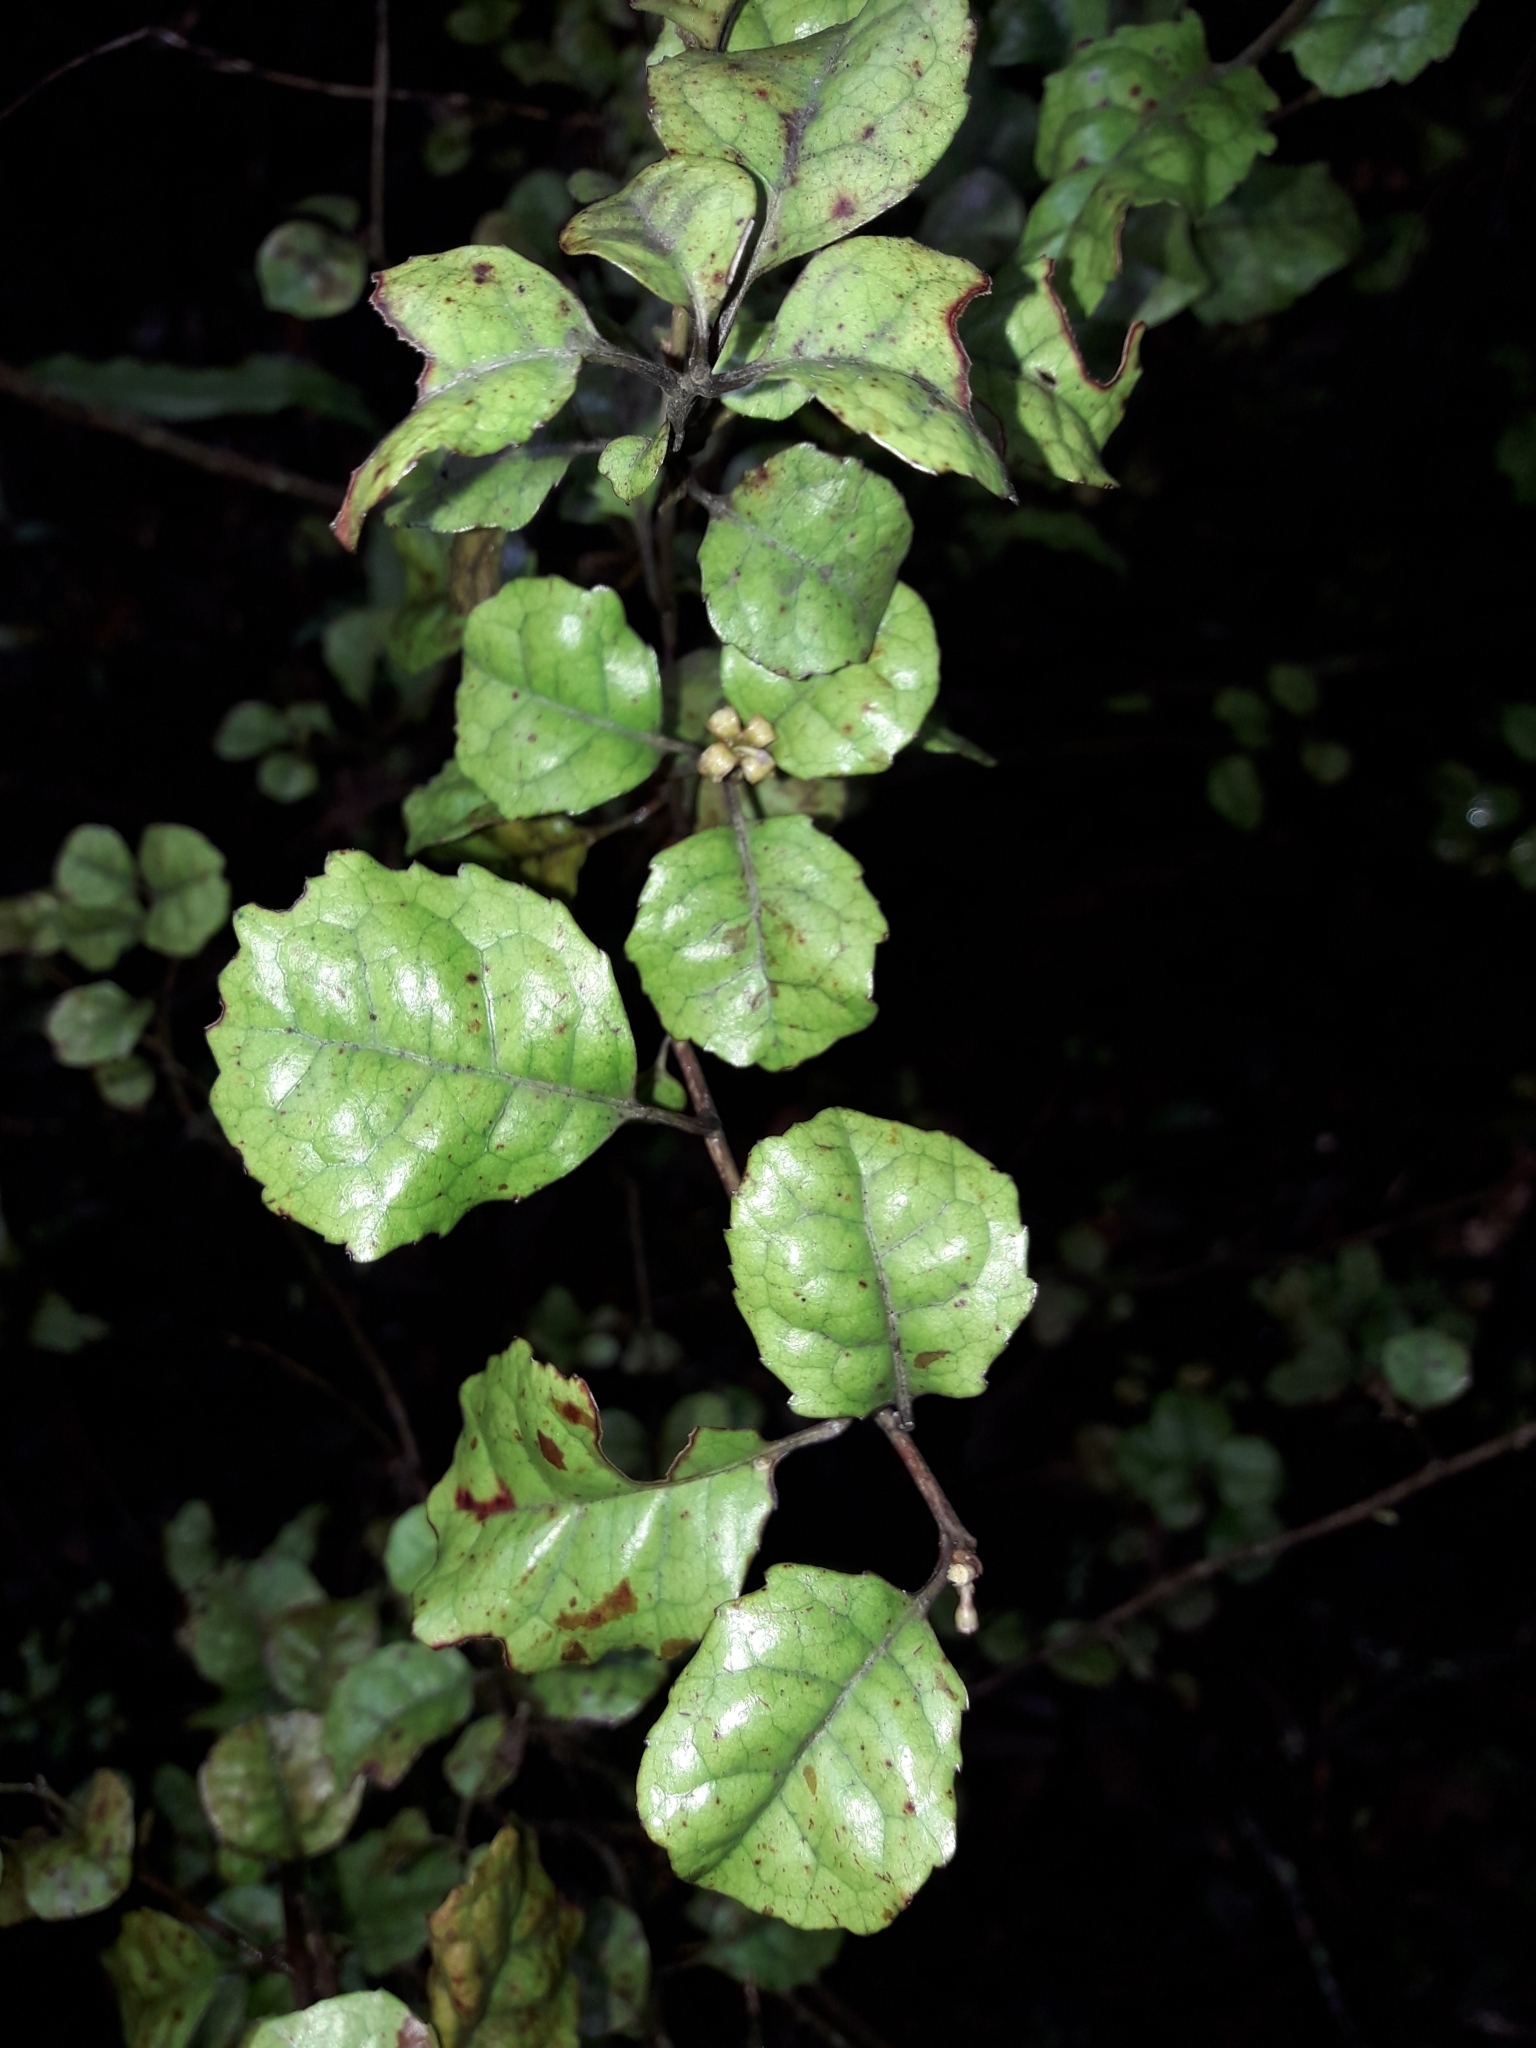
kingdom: Plantae
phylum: Tracheophyta
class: Magnoliopsida
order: Asterales
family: Alseuosmiaceae
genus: Alseuosmia
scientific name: Alseuosmia banksii
